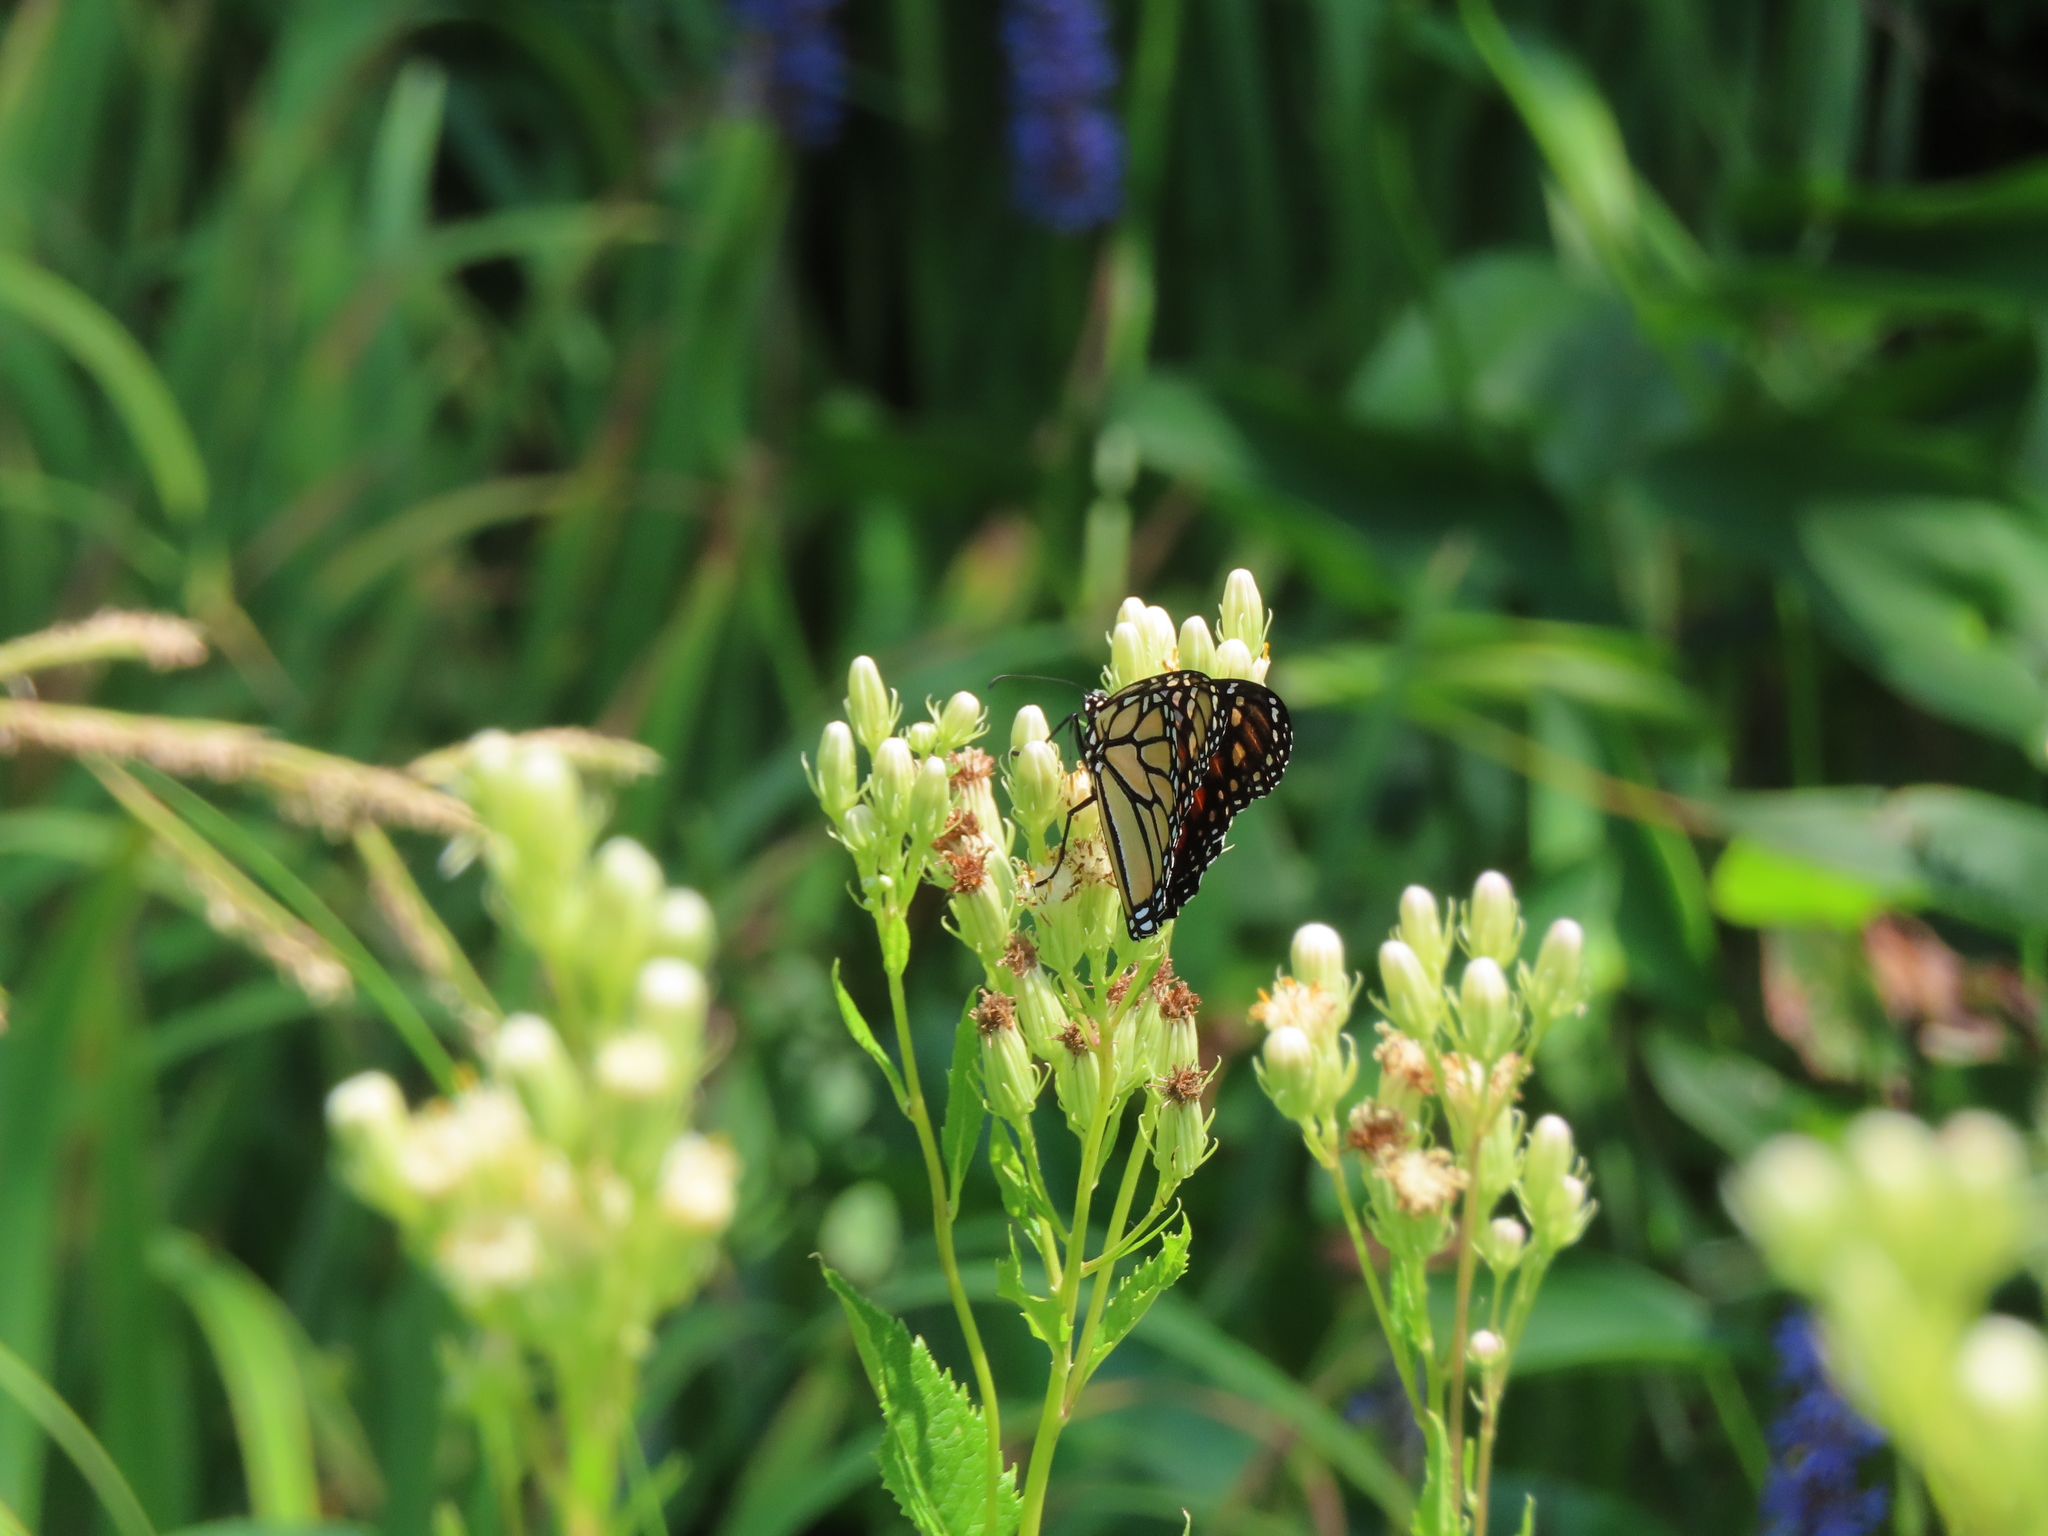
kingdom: Animalia
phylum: Arthropoda
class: Insecta
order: Lepidoptera
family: Nymphalidae
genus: Danaus
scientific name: Danaus plexippus
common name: Monarch
